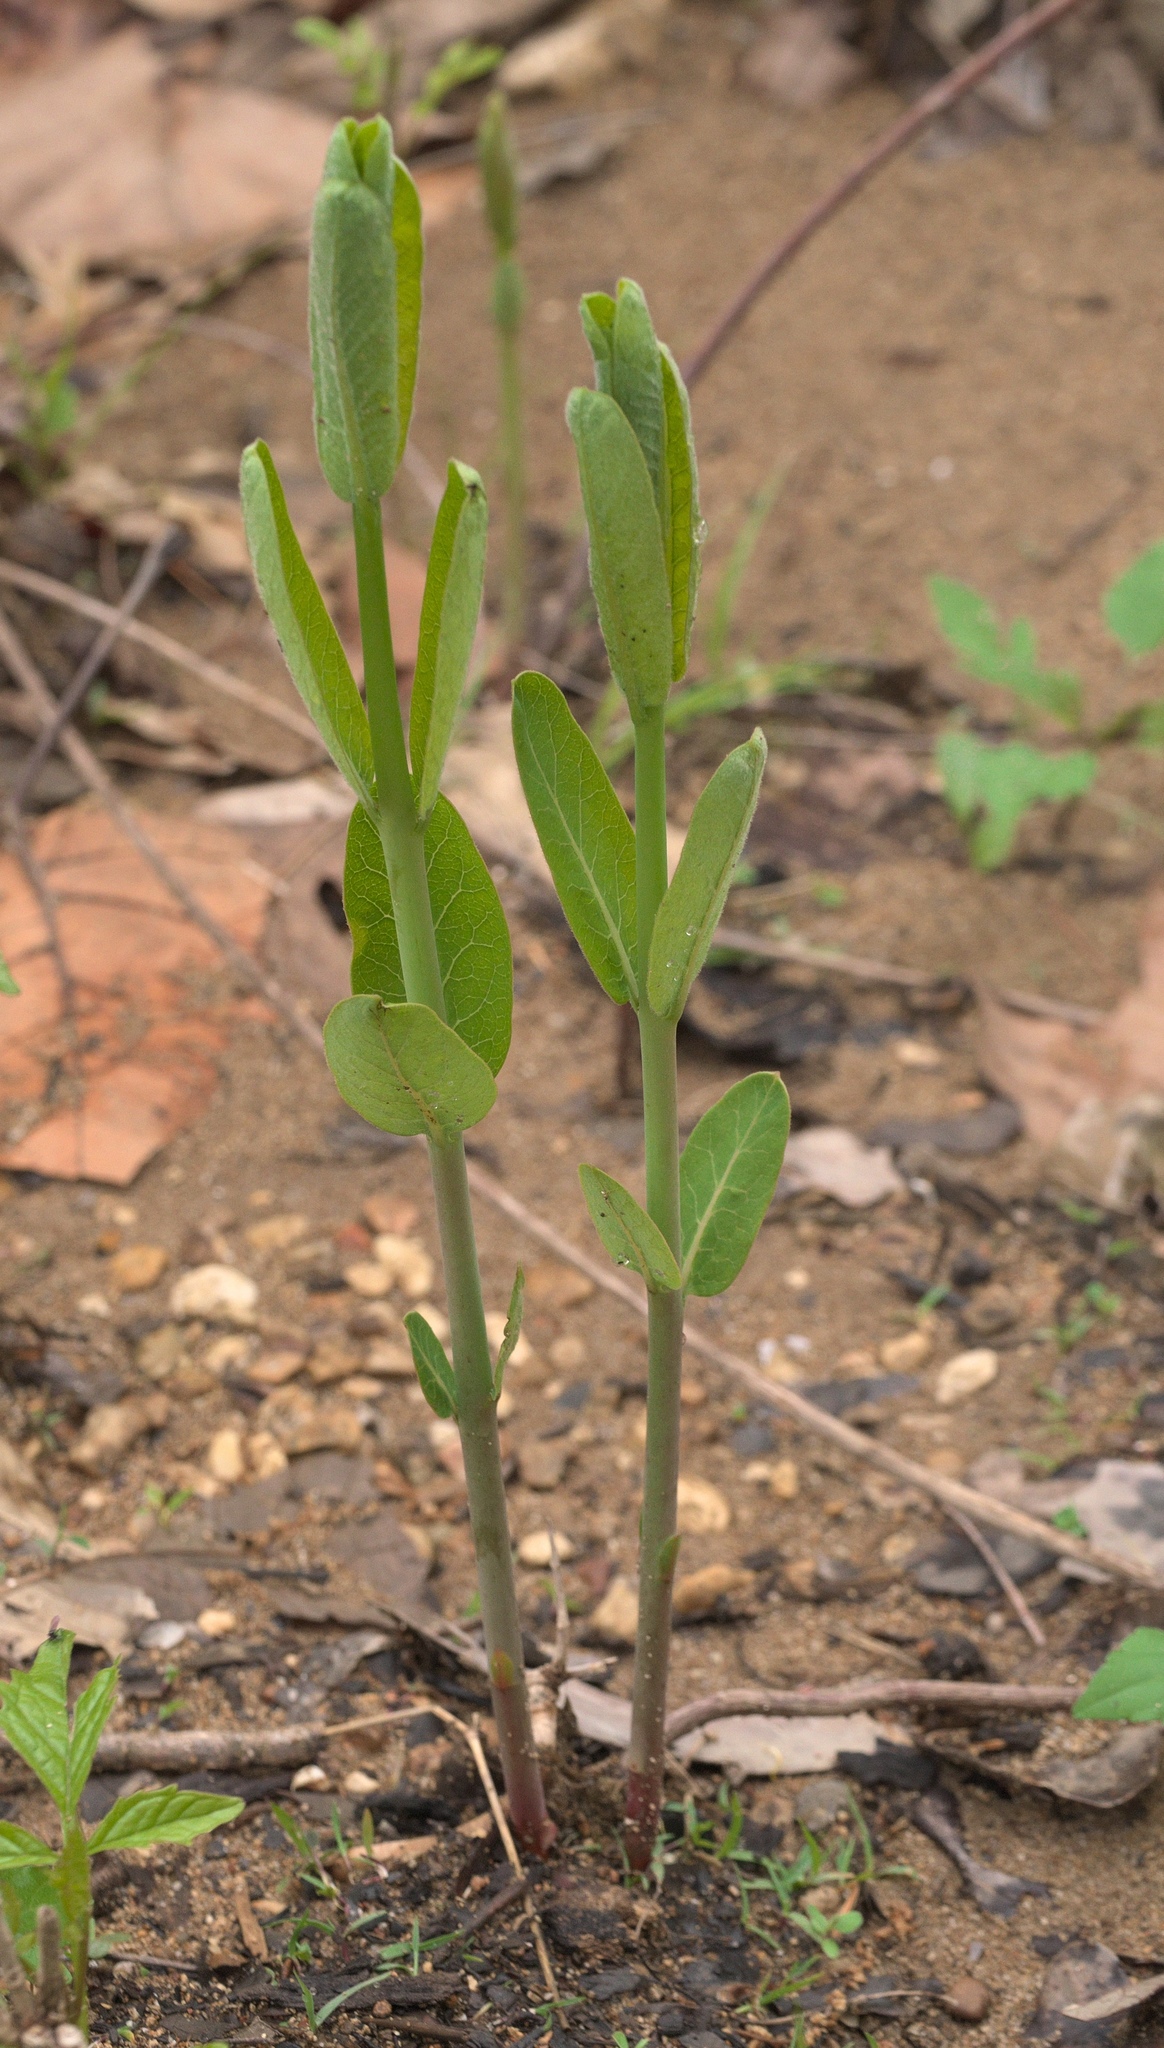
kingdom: Plantae
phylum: Tracheophyta
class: Magnoliopsida
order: Gentianales
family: Apocynaceae
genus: Apocynum
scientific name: Apocynum cannabinum
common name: Hemp dogbane
